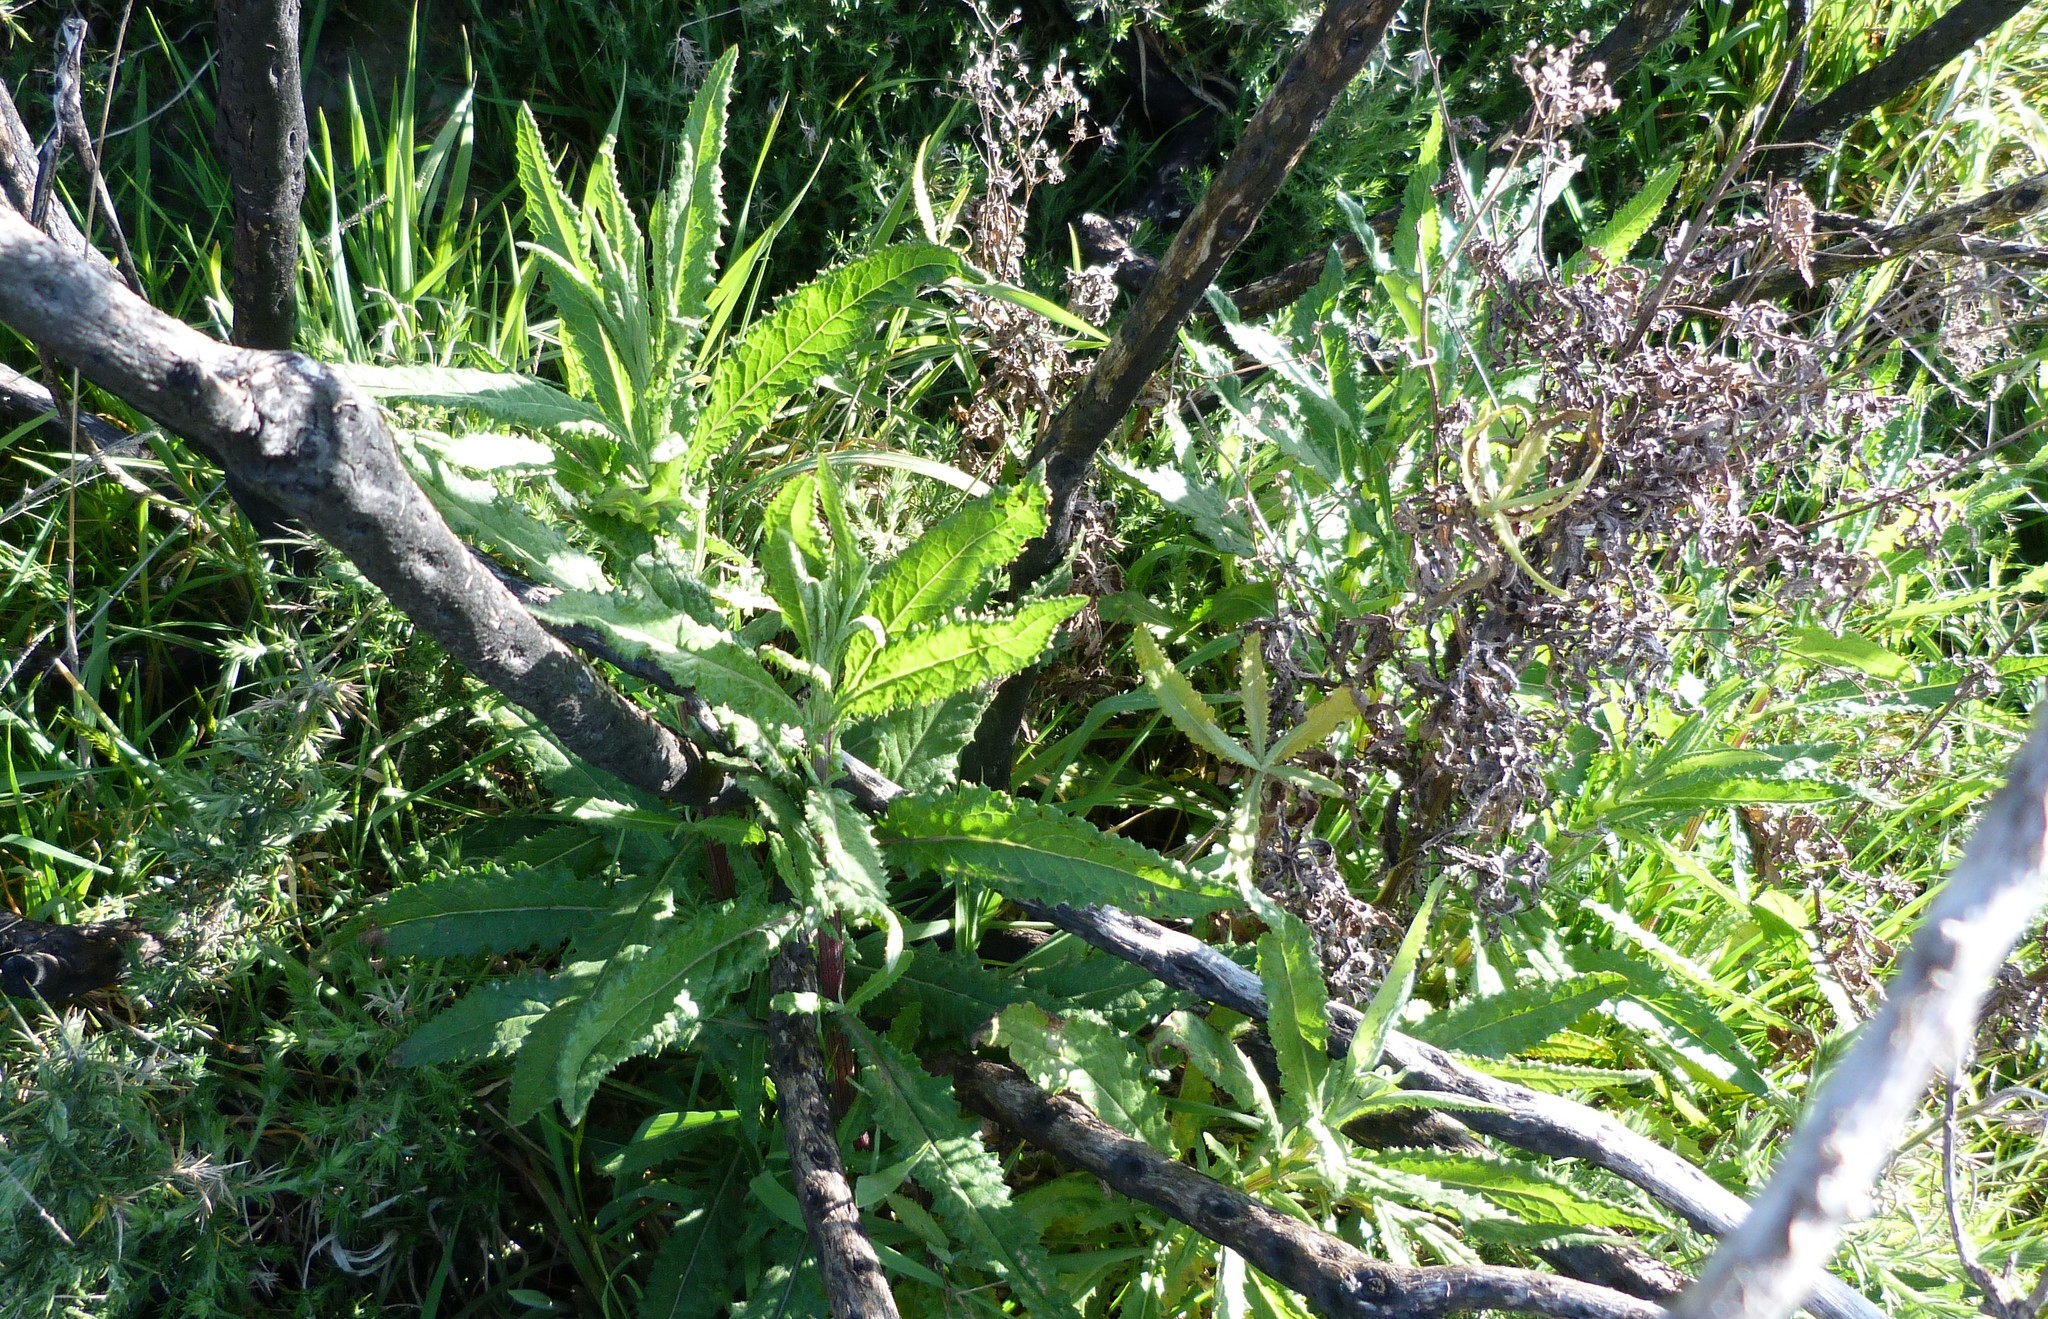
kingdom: Plantae
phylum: Tracheophyta
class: Magnoliopsida
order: Asterales
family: Asteraceae
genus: Senecio
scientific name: Senecio minimus
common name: Toothed fireweed
